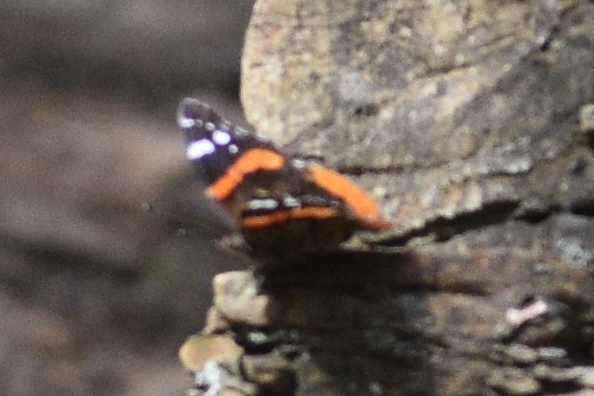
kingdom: Animalia
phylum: Arthropoda
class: Insecta
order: Lepidoptera
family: Nymphalidae
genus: Vanessa
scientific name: Vanessa atalanta
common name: Red admiral
